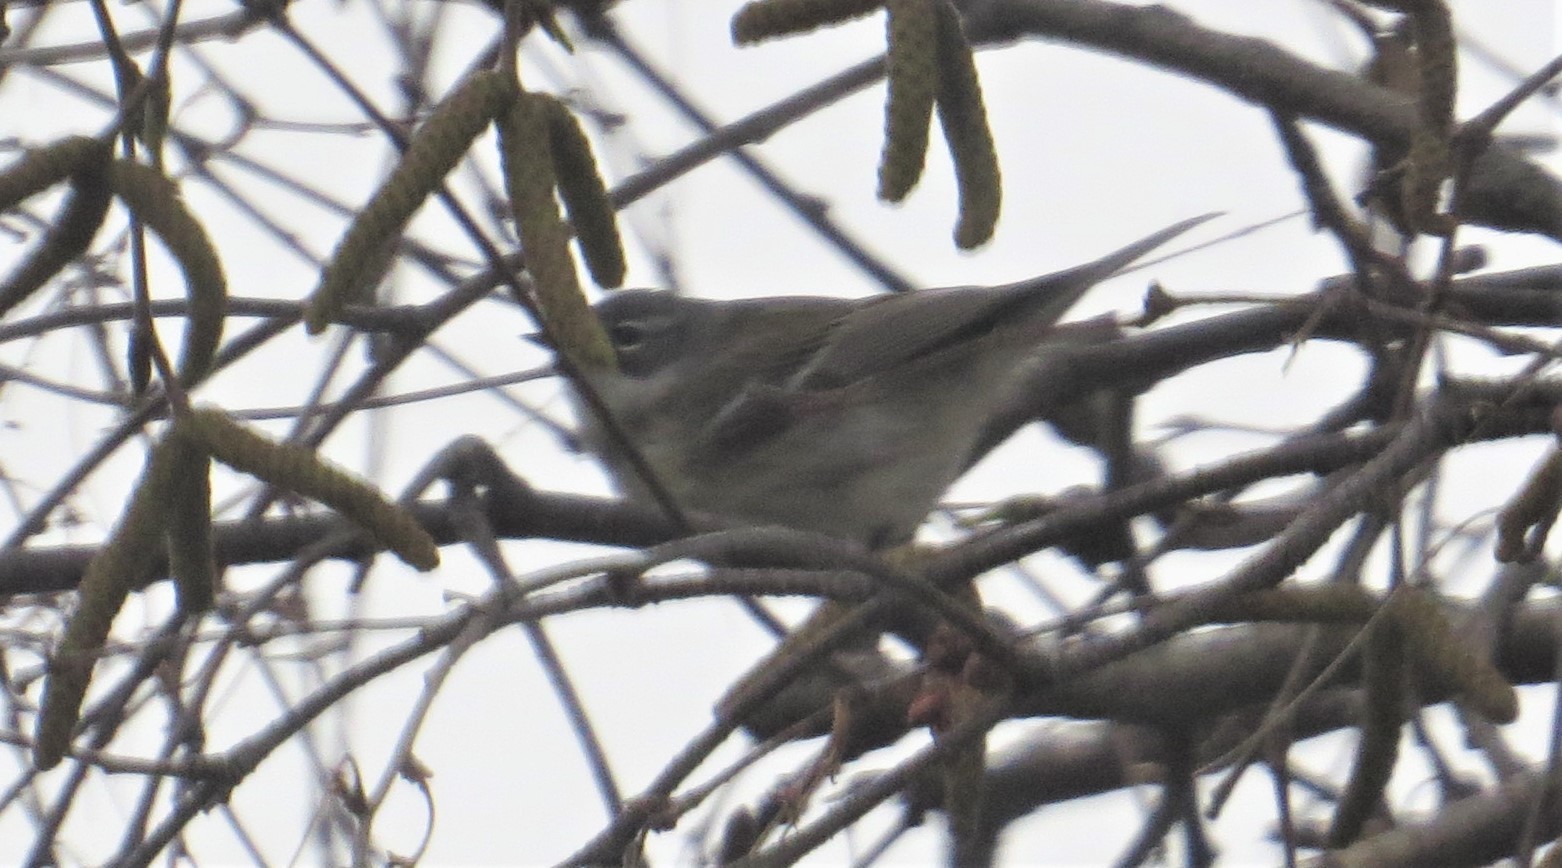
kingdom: Animalia
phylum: Chordata
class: Aves
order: Passeriformes
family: Parulidae
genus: Setophaga
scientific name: Setophaga coronata
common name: Myrtle warbler
